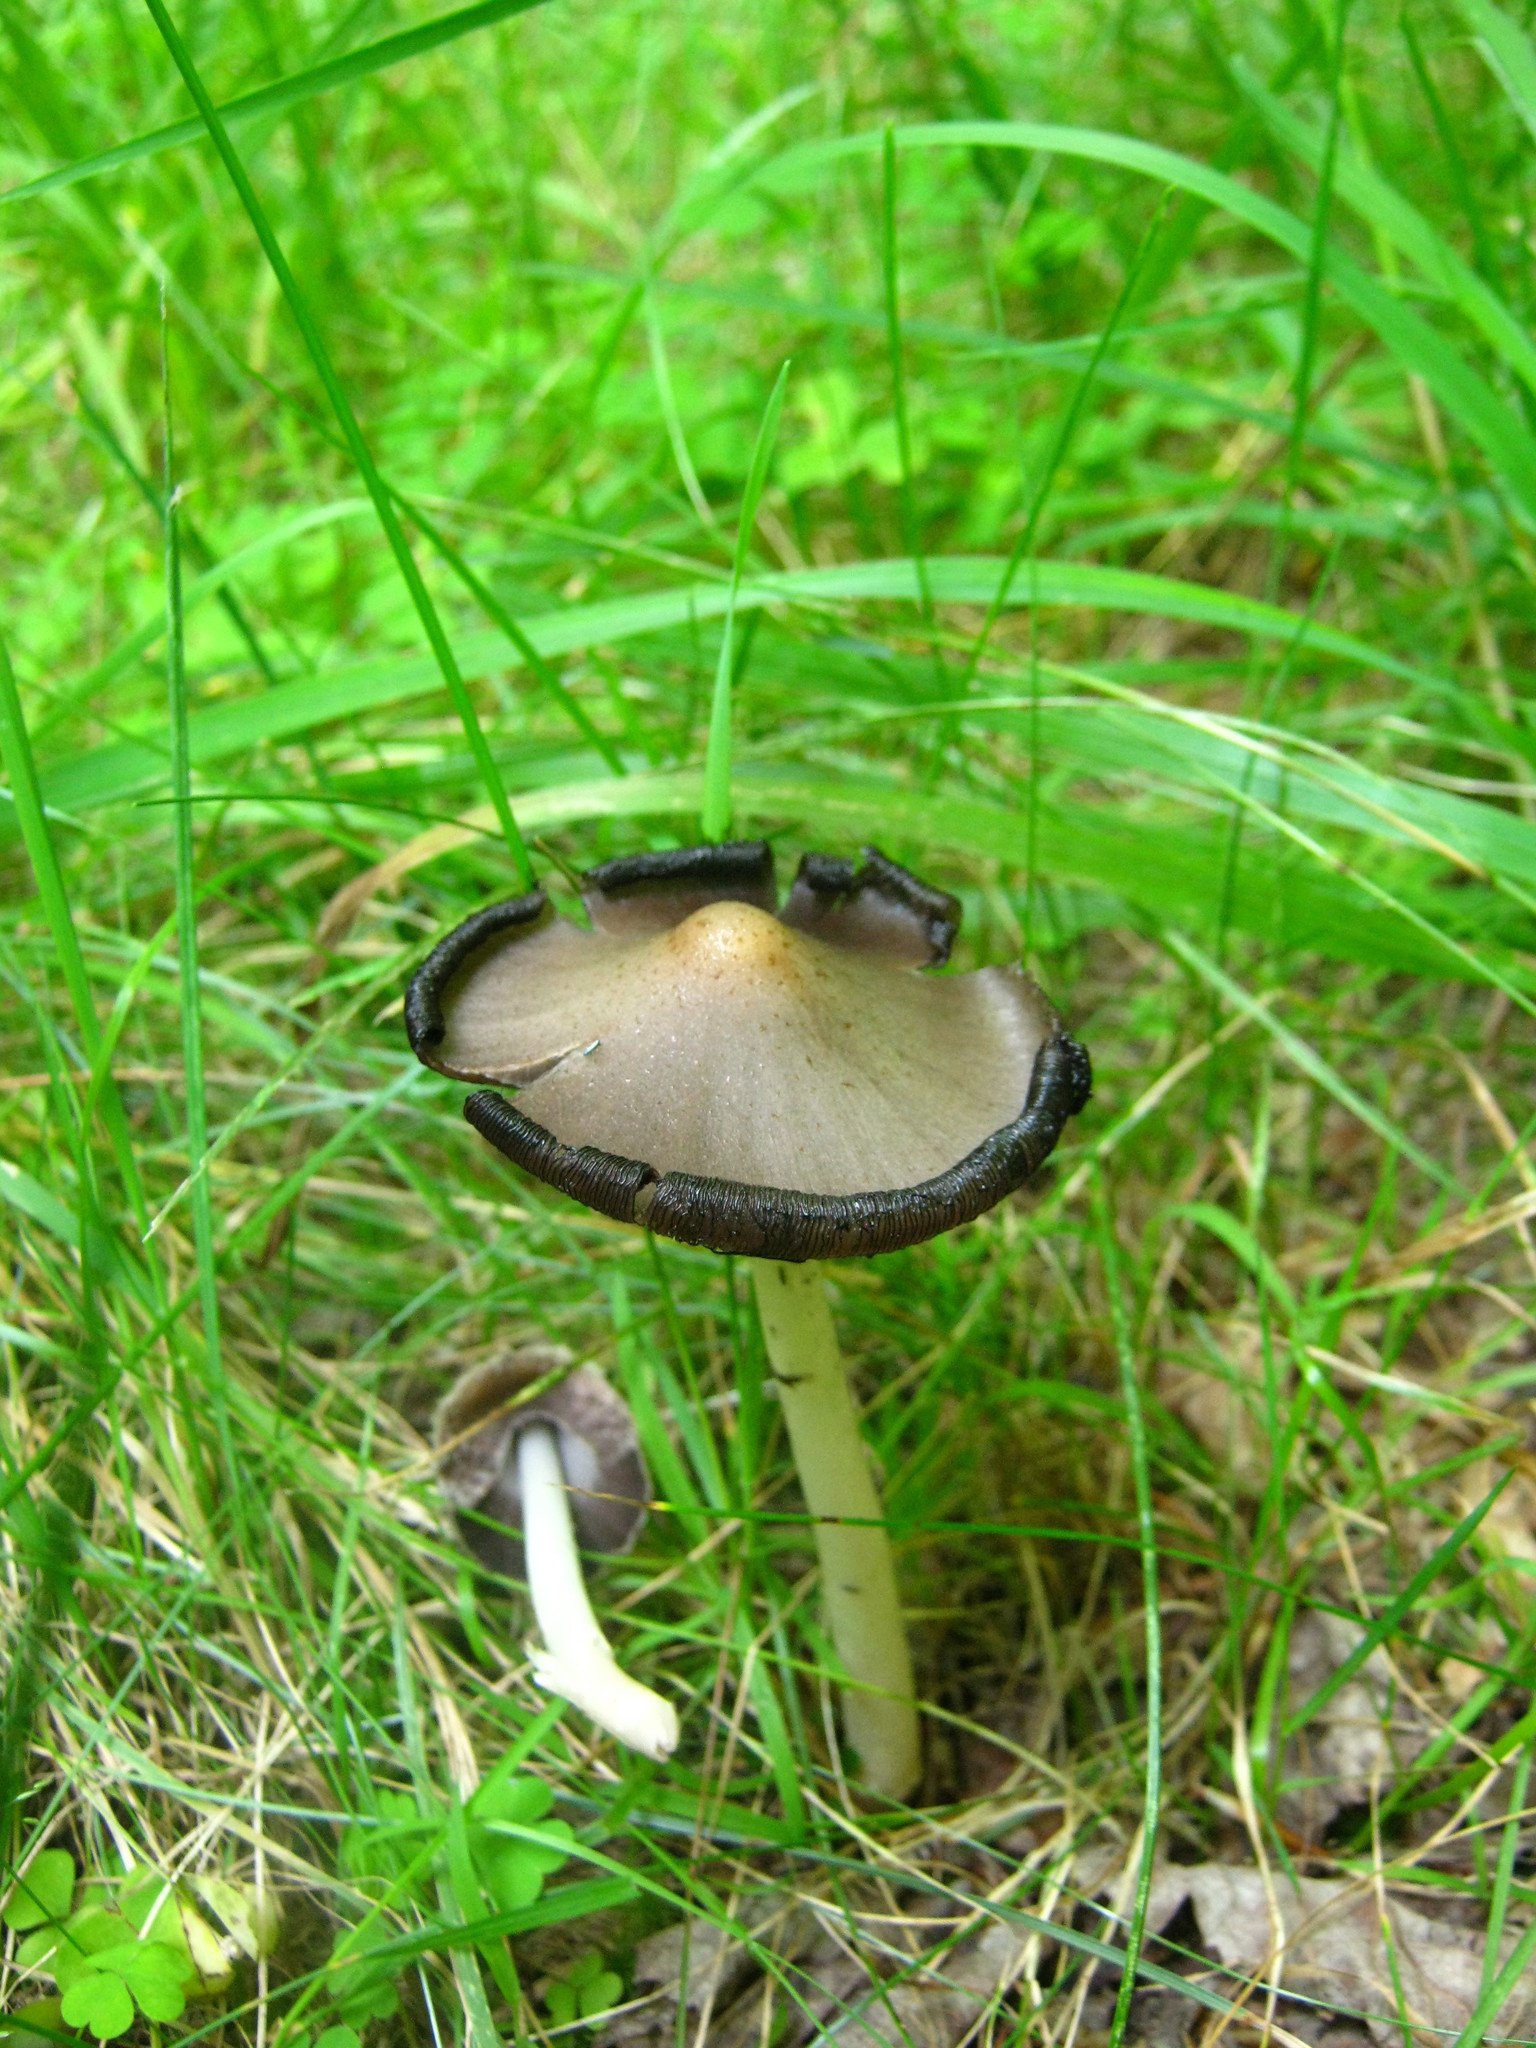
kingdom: Fungi
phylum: Basidiomycota
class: Agaricomycetes
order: Agaricales
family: Psathyrellaceae
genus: Coprinopsis
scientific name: Coprinopsis atramentaria
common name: Common ink-cap
